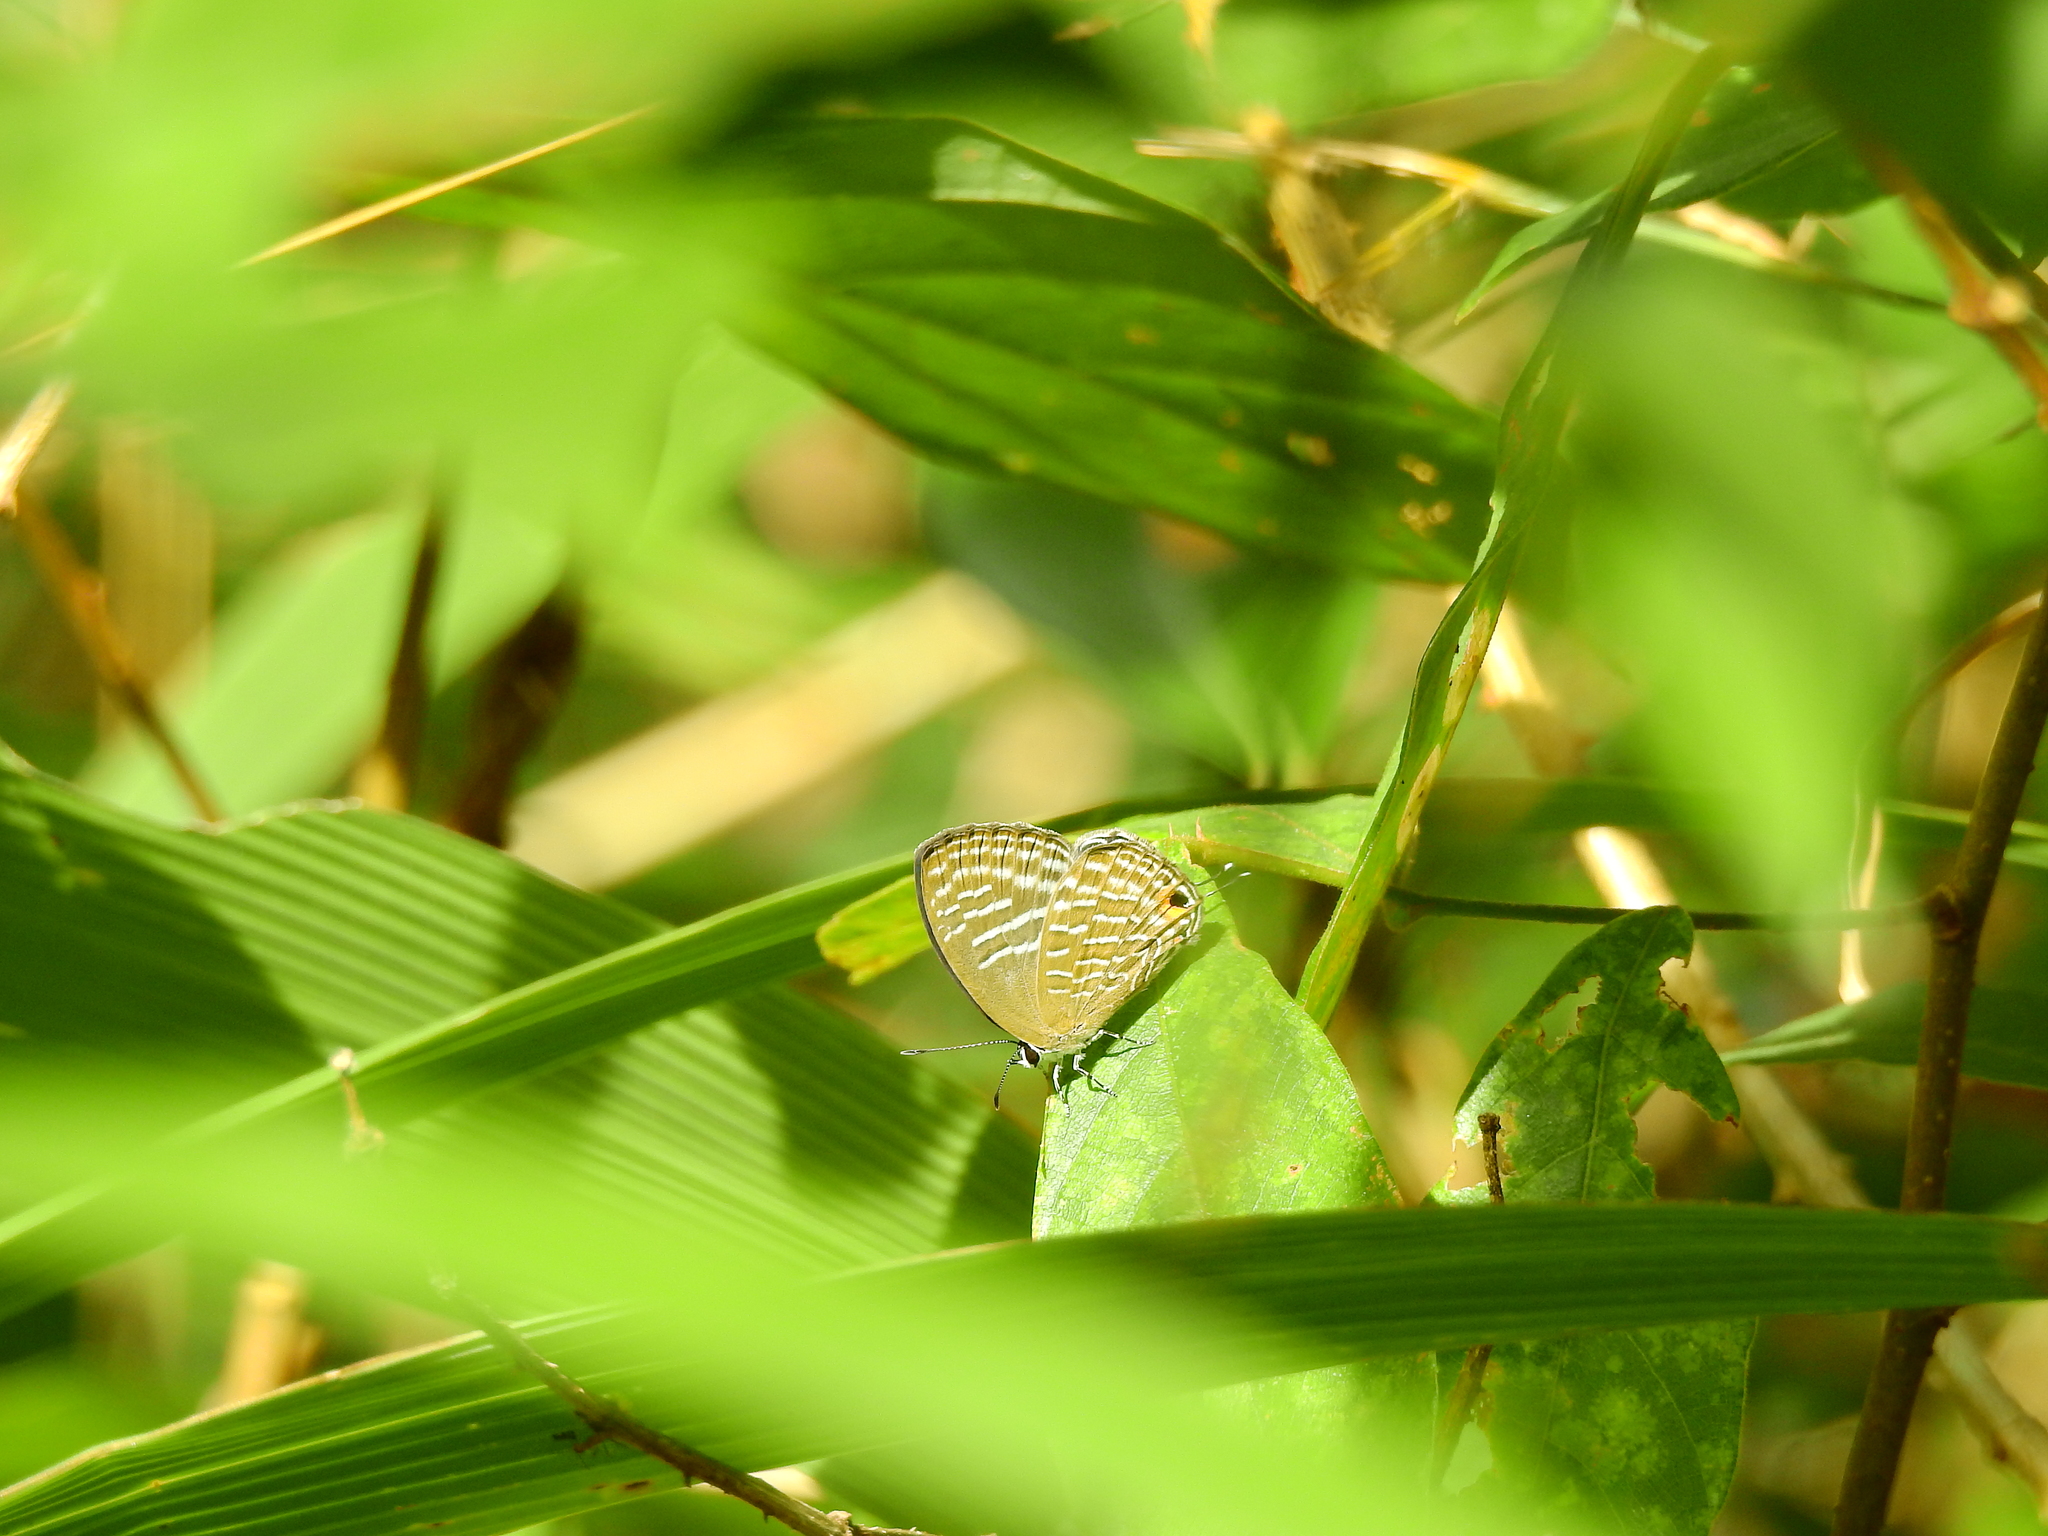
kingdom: Animalia
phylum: Arthropoda
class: Insecta
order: Lepidoptera
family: Lycaenidae
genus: Jamides
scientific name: Jamides alecto
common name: Metallic cerulean
